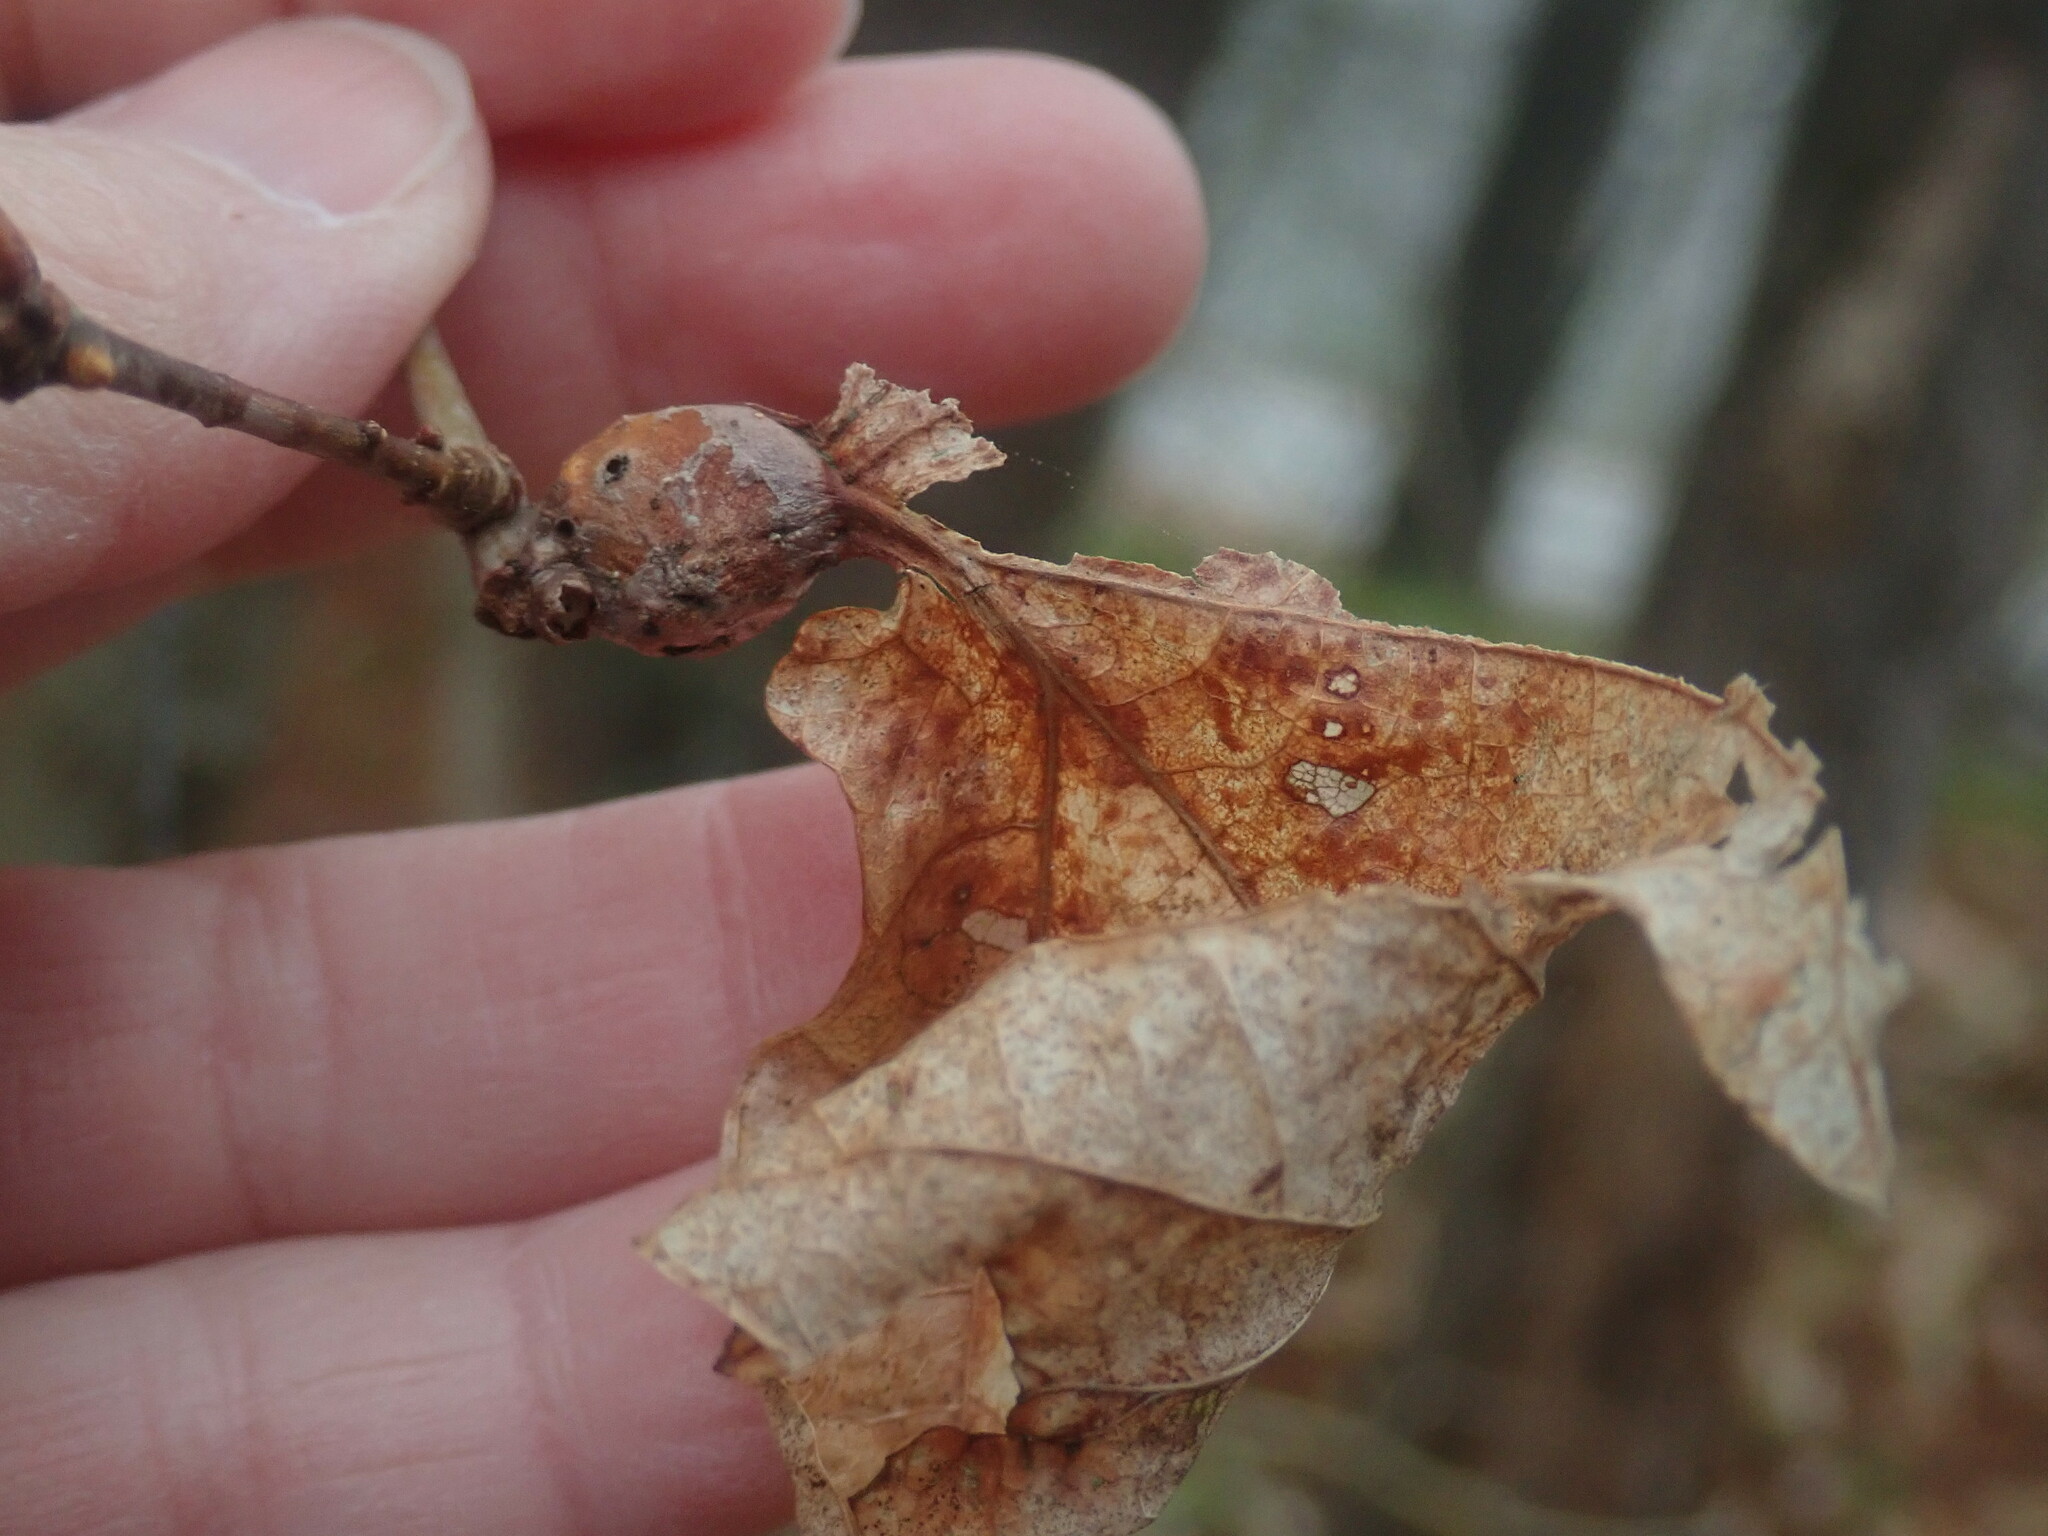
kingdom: Animalia
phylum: Arthropoda
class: Insecta
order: Hymenoptera
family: Cynipidae
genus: Andricus
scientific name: Andricus
